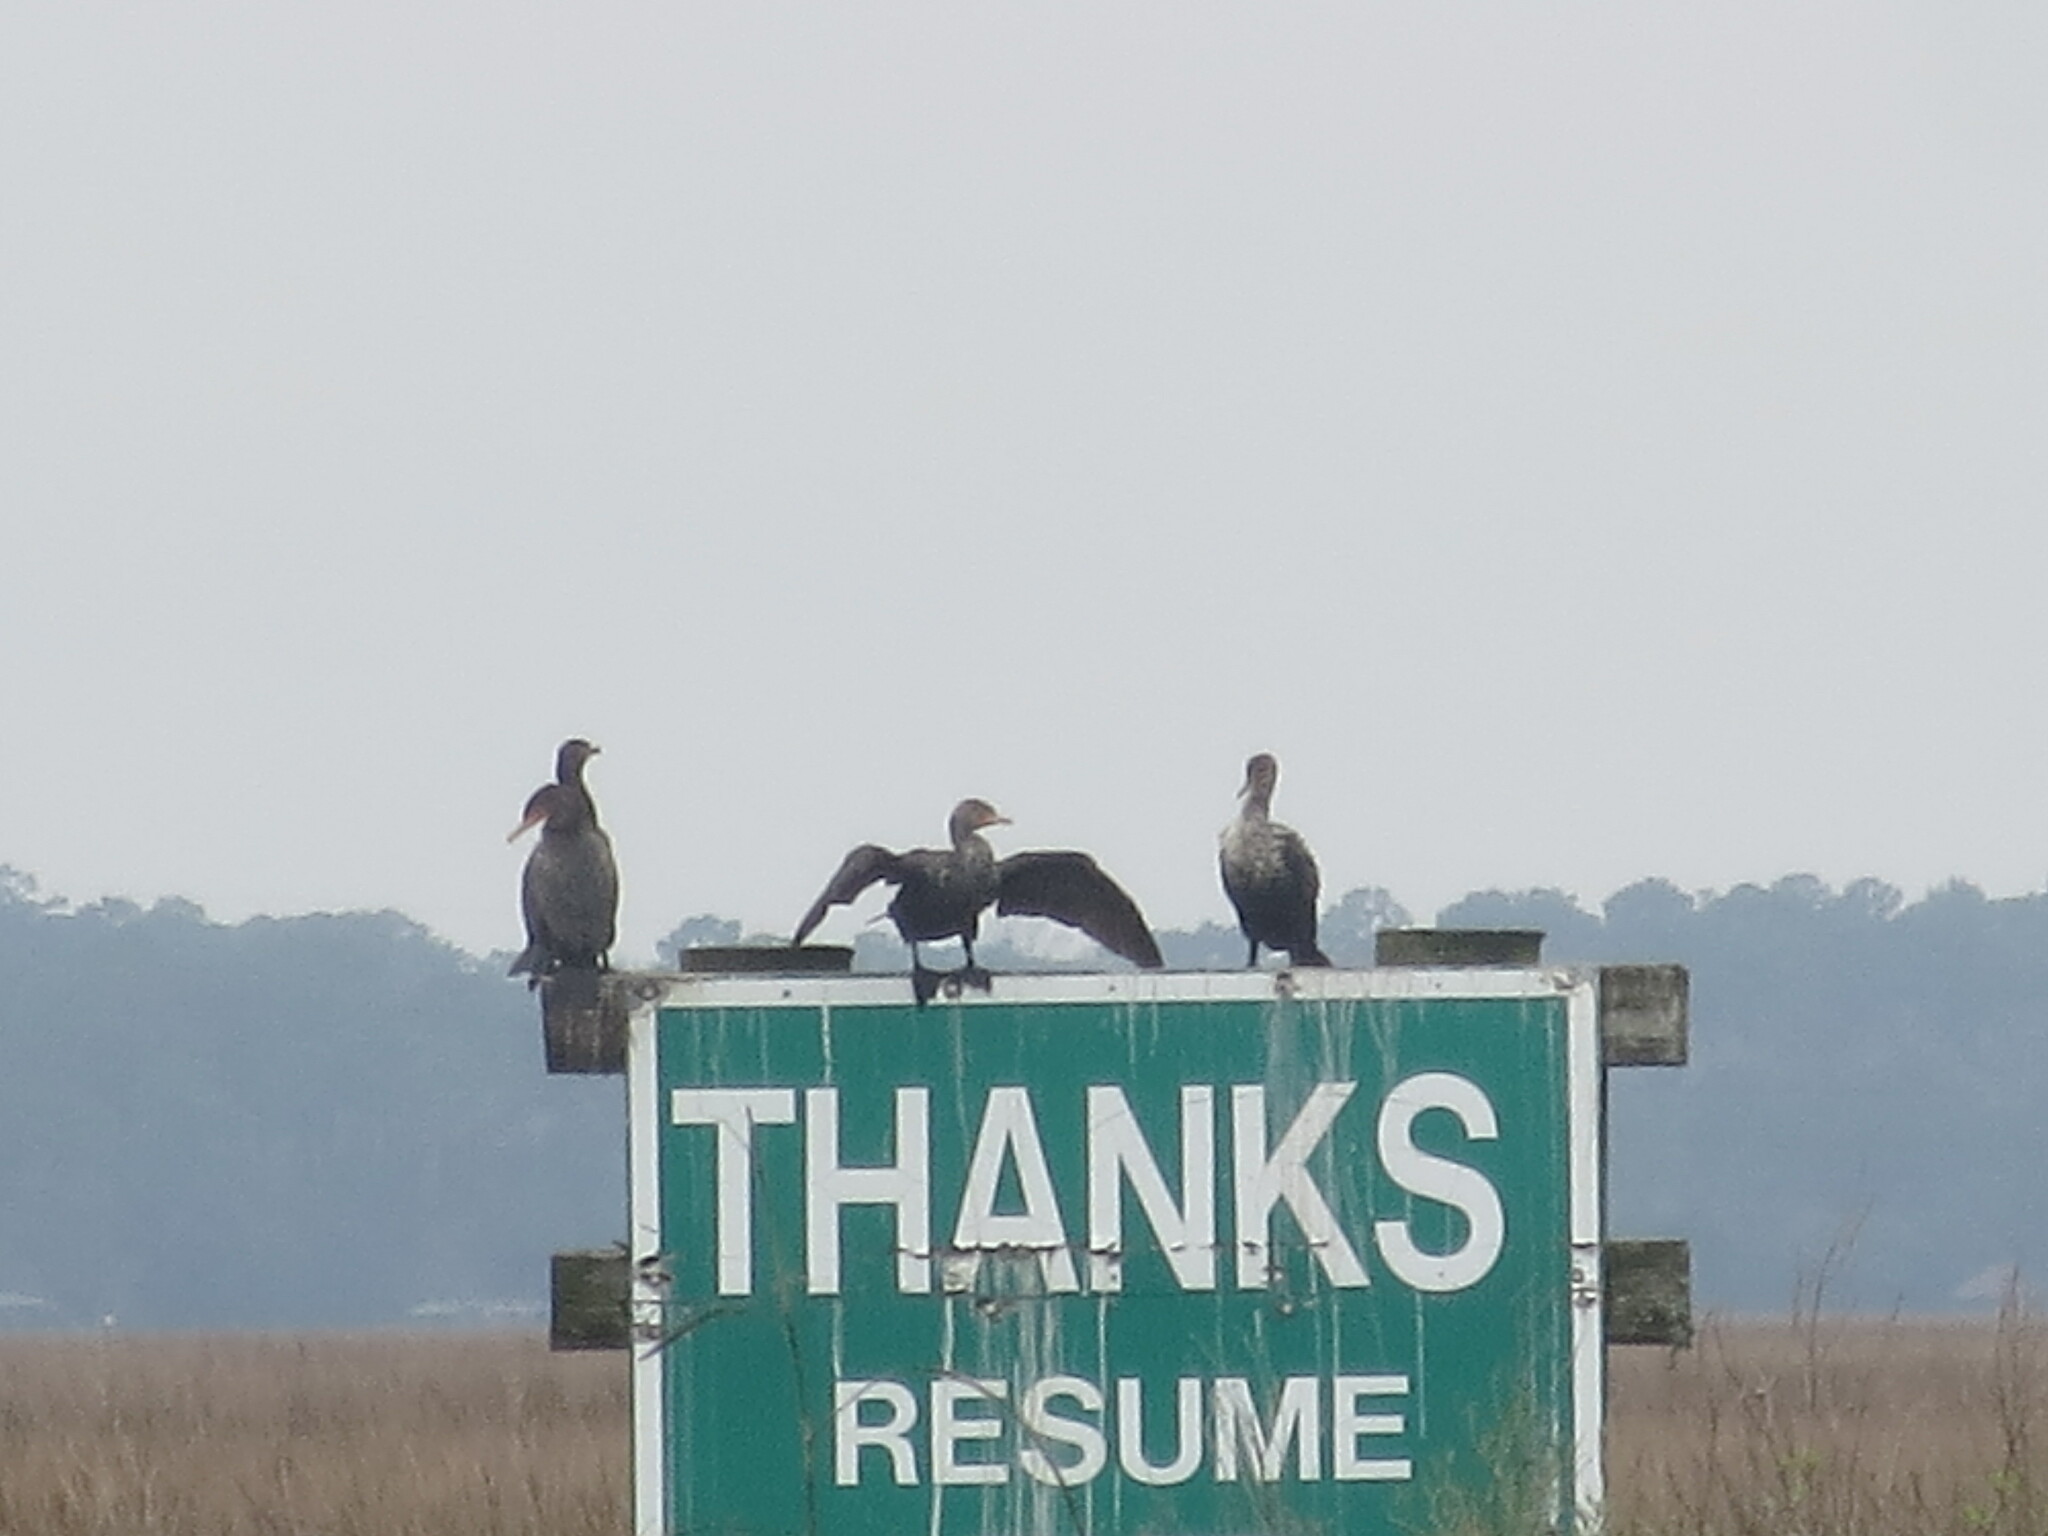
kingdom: Animalia
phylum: Chordata
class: Aves
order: Suliformes
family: Phalacrocoracidae
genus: Phalacrocorax
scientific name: Phalacrocorax auritus
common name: Double-crested cormorant
